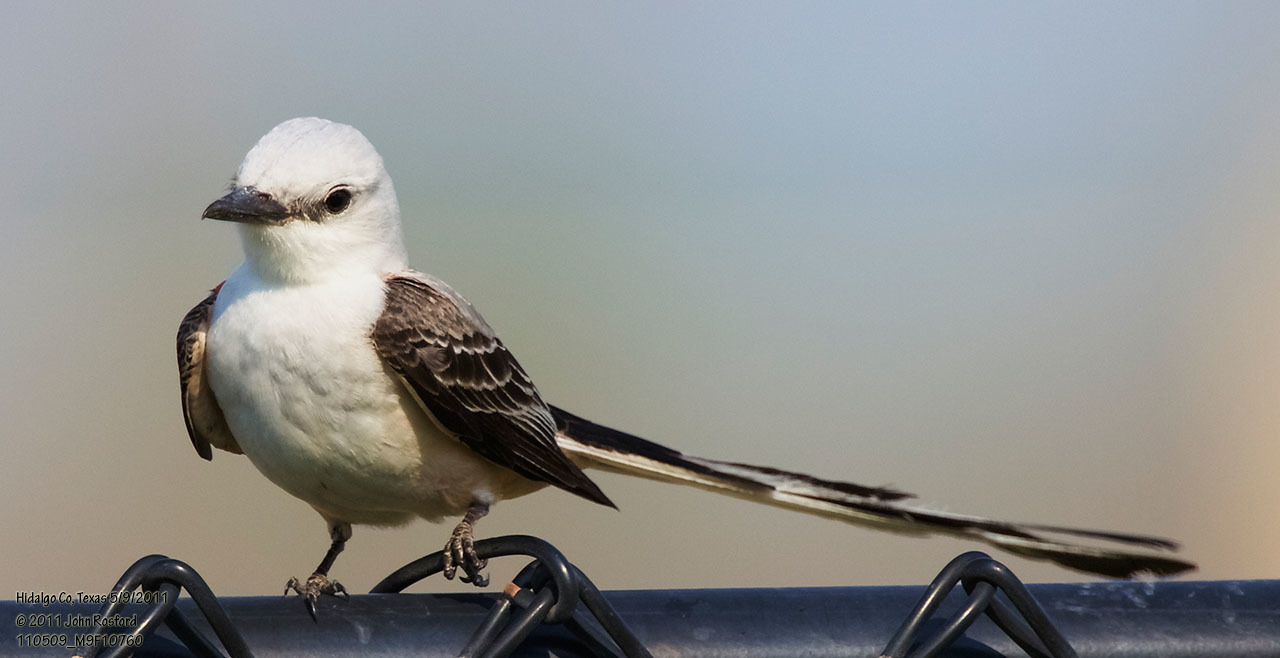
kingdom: Animalia
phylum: Chordata
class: Aves
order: Passeriformes
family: Tyrannidae
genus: Tyrannus
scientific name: Tyrannus forficatus
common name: Scissor-tailed flycatcher
